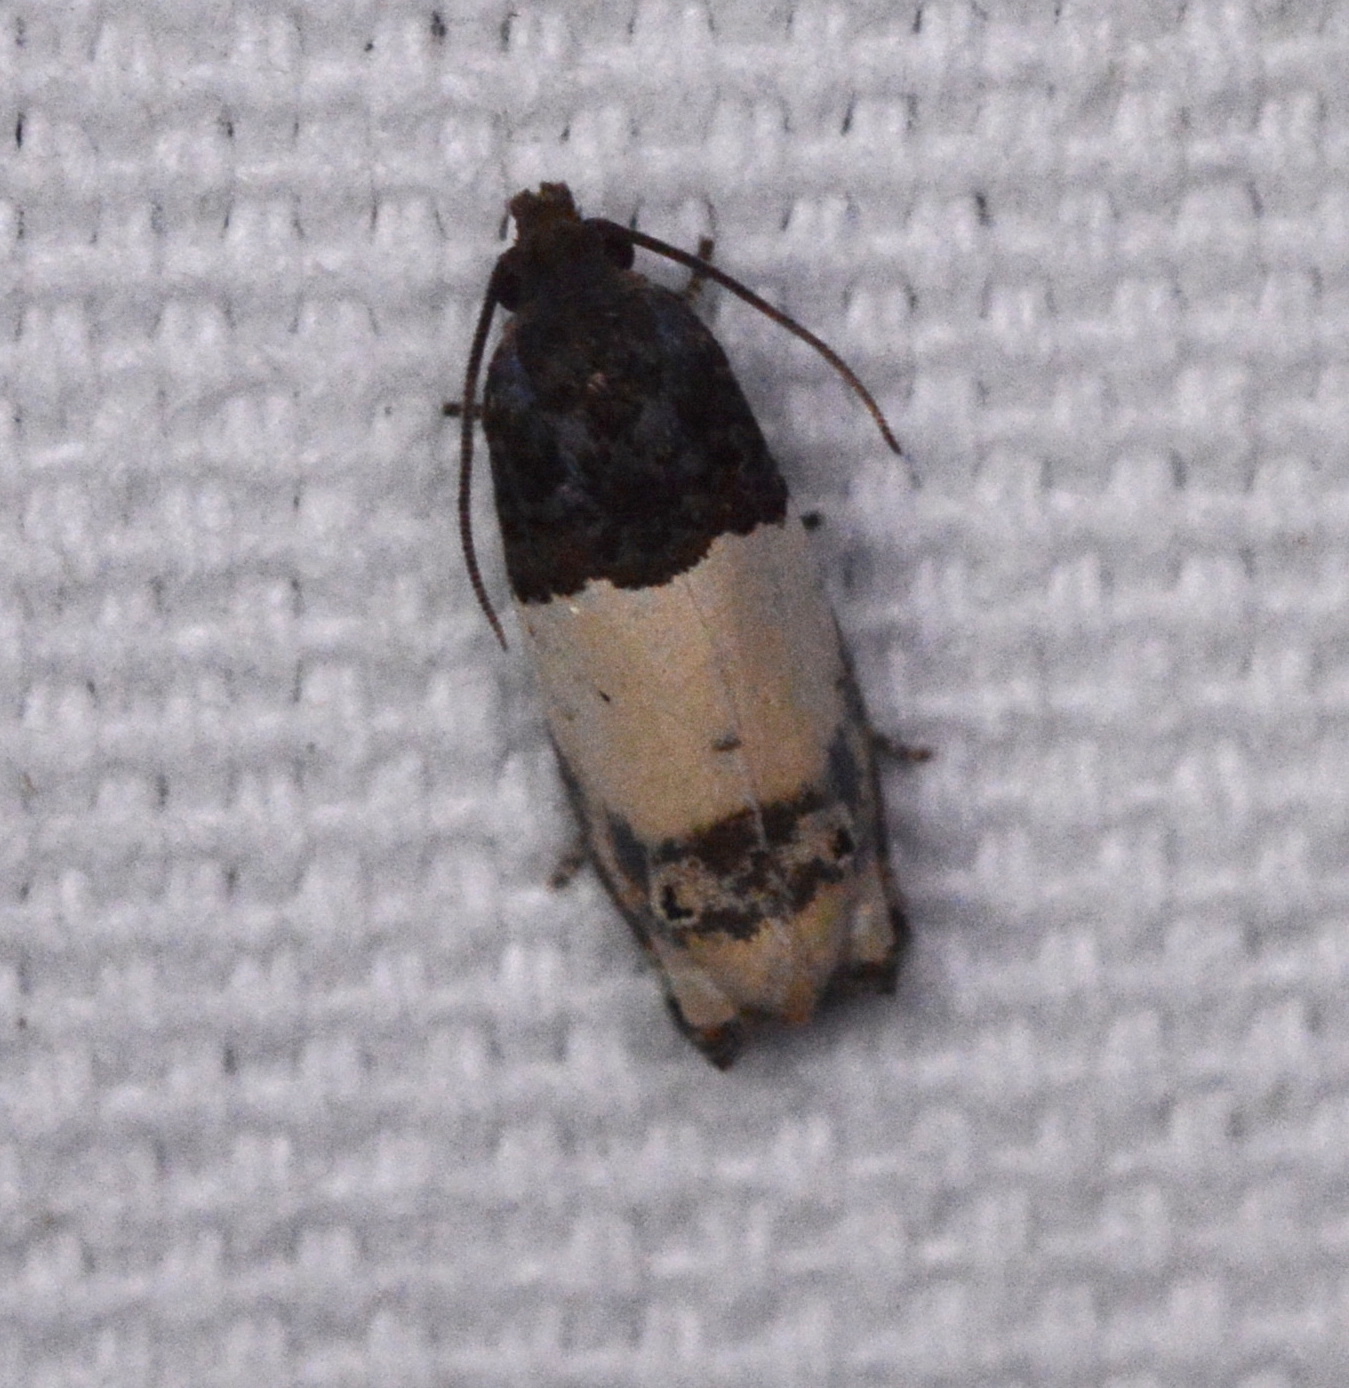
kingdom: Animalia
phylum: Arthropoda
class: Insecta
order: Lepidoptera
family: Tortricidae
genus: Epiblema
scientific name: Epiblema scudderiana
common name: Goldenrod gall moth
